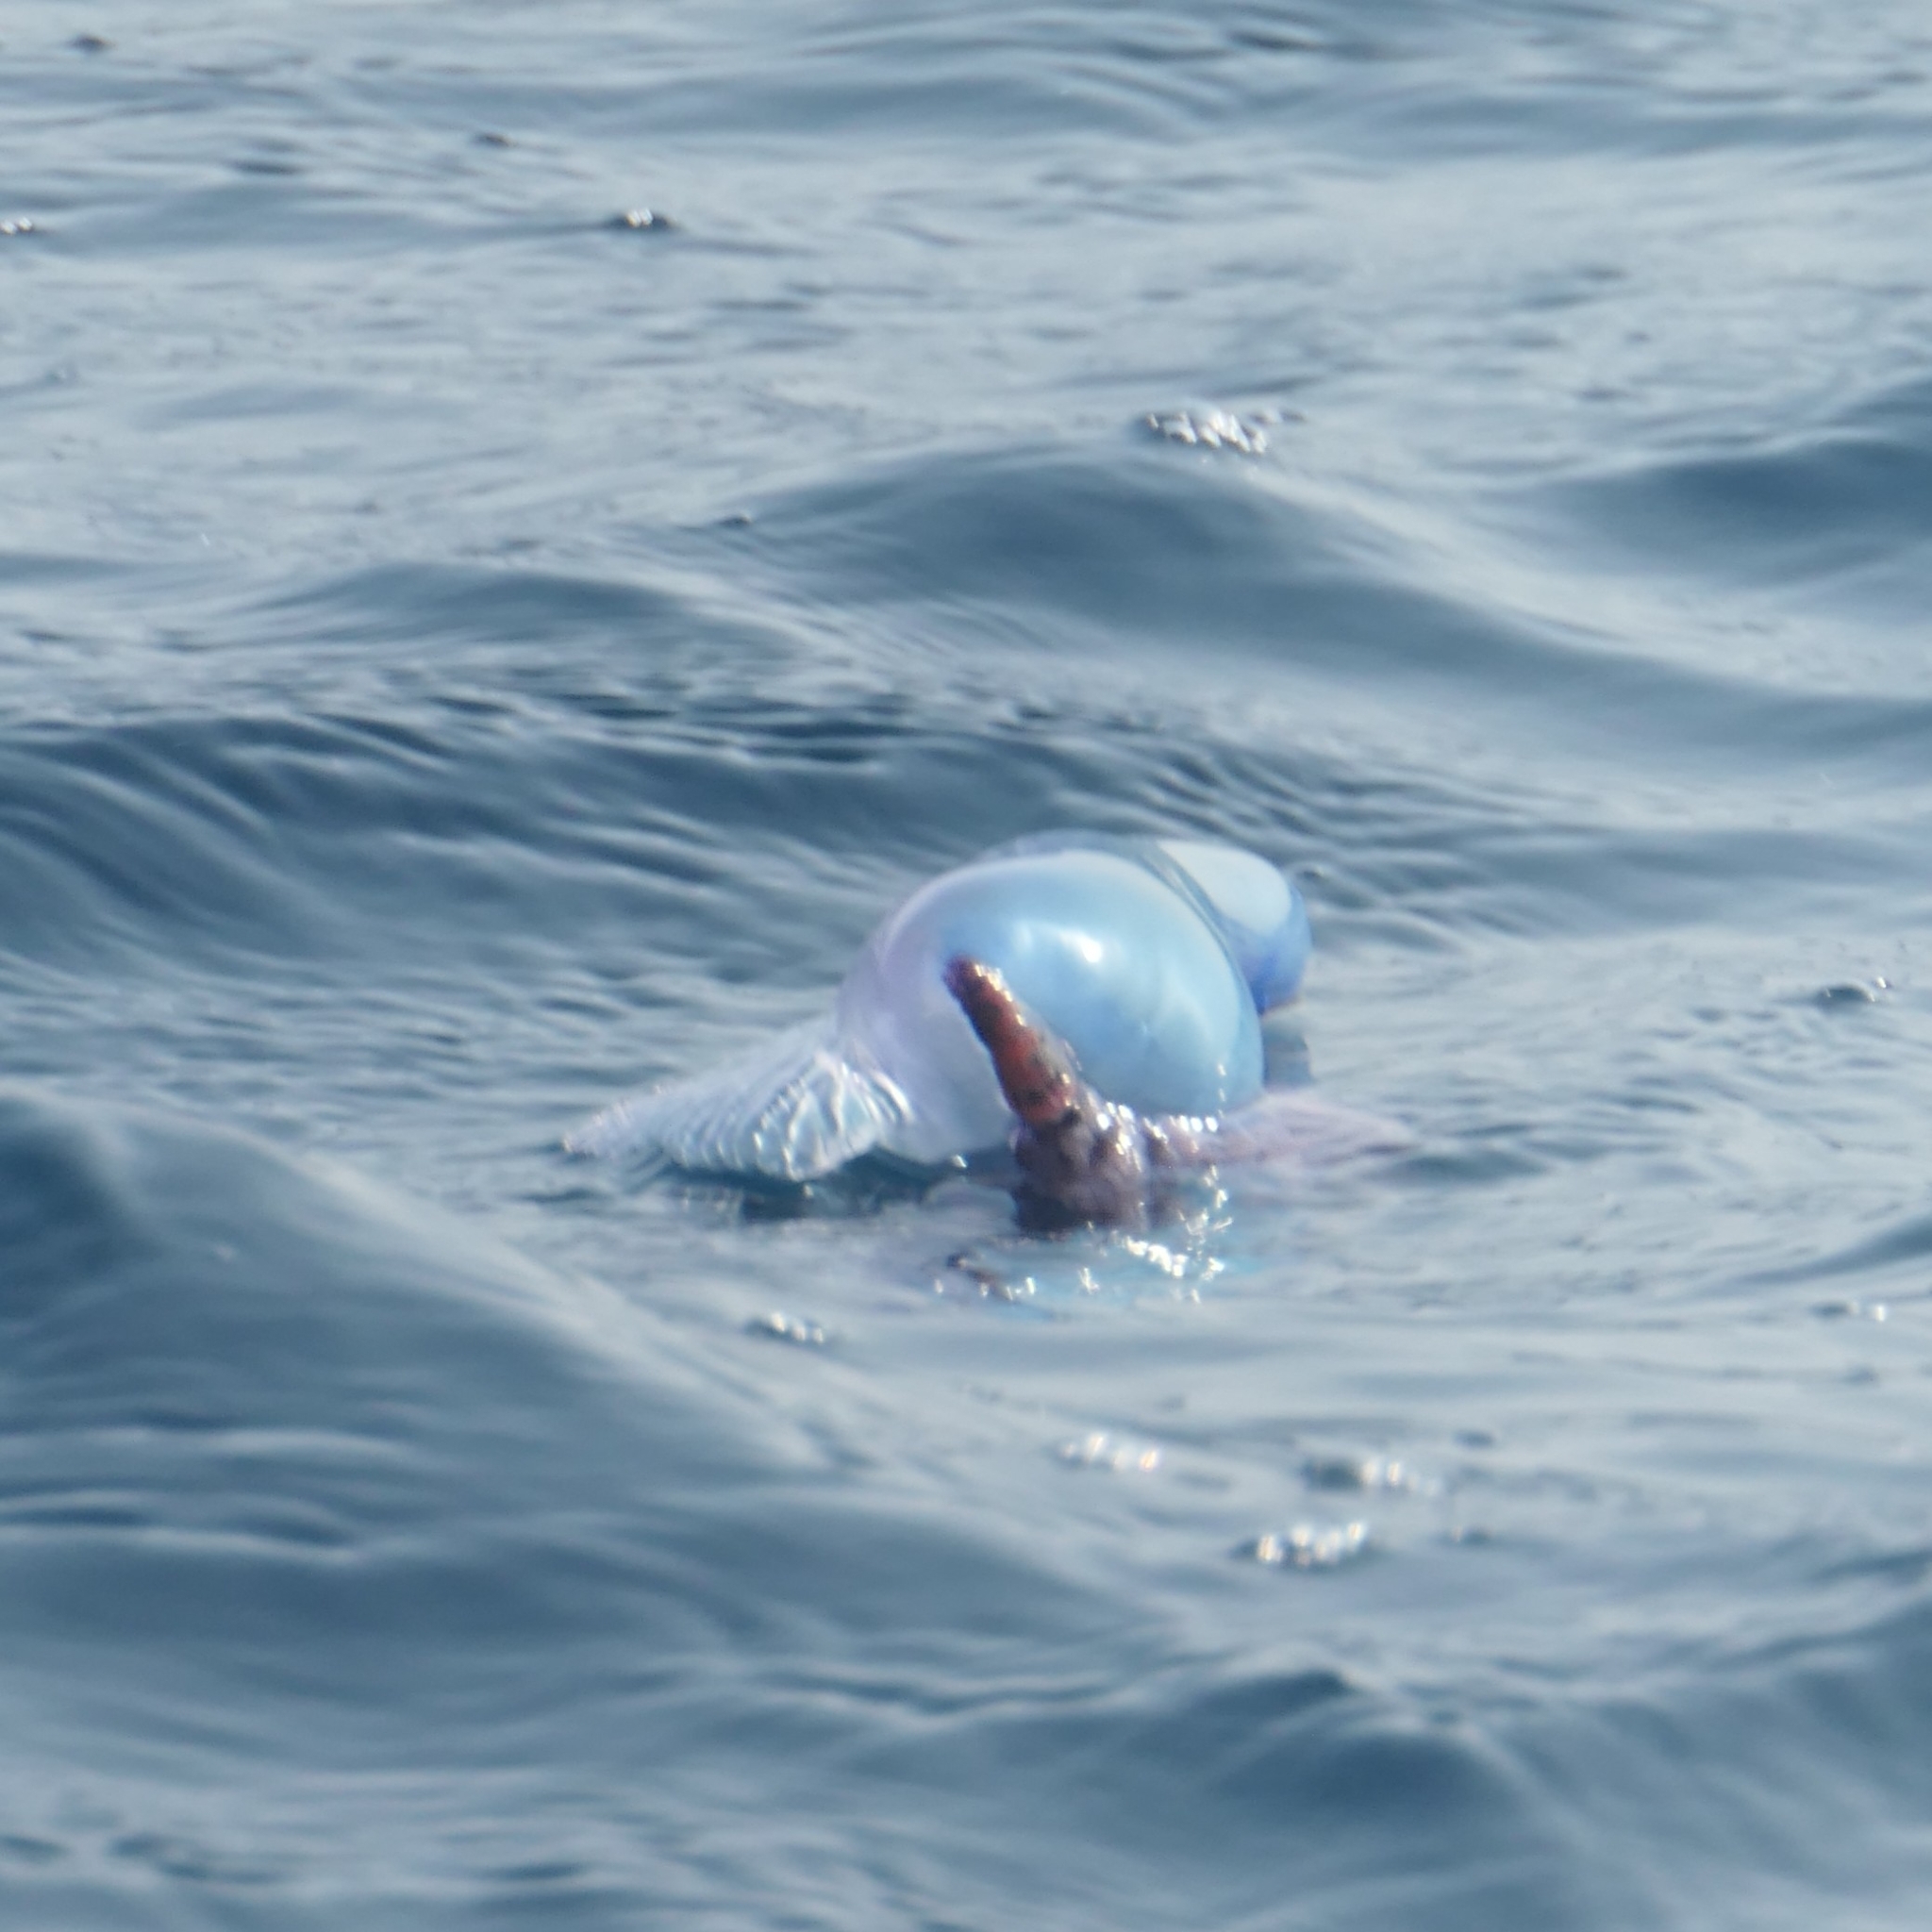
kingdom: Animalia
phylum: Cnidaria
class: Hydrozoa
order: Siphonophorae
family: Physaliidae
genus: Physalia
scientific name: Physalia physalis
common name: Portuguese man-of-war
